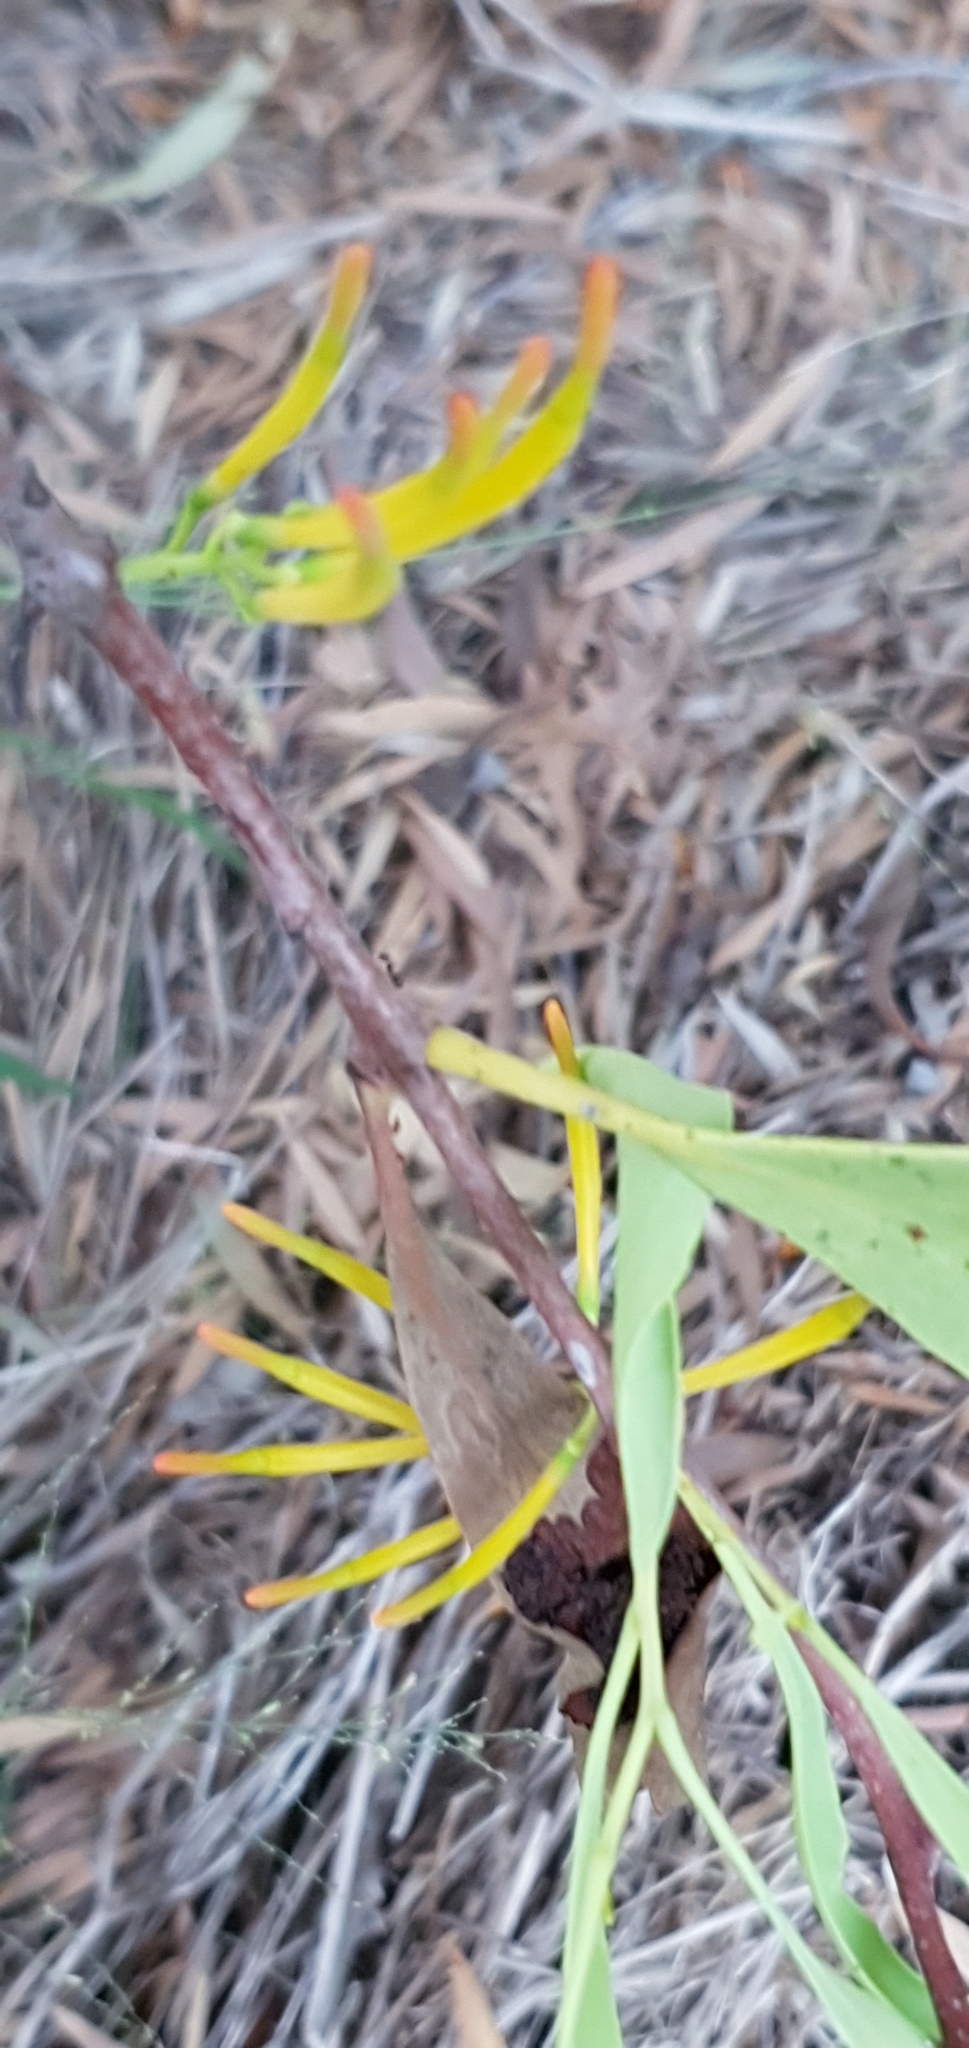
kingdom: Plantae
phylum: Tracheophyta
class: Magnoliopsida
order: Santalales
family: Loranthaceae
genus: Dendrophthoe
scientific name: Dendrophthoe glabrescens
